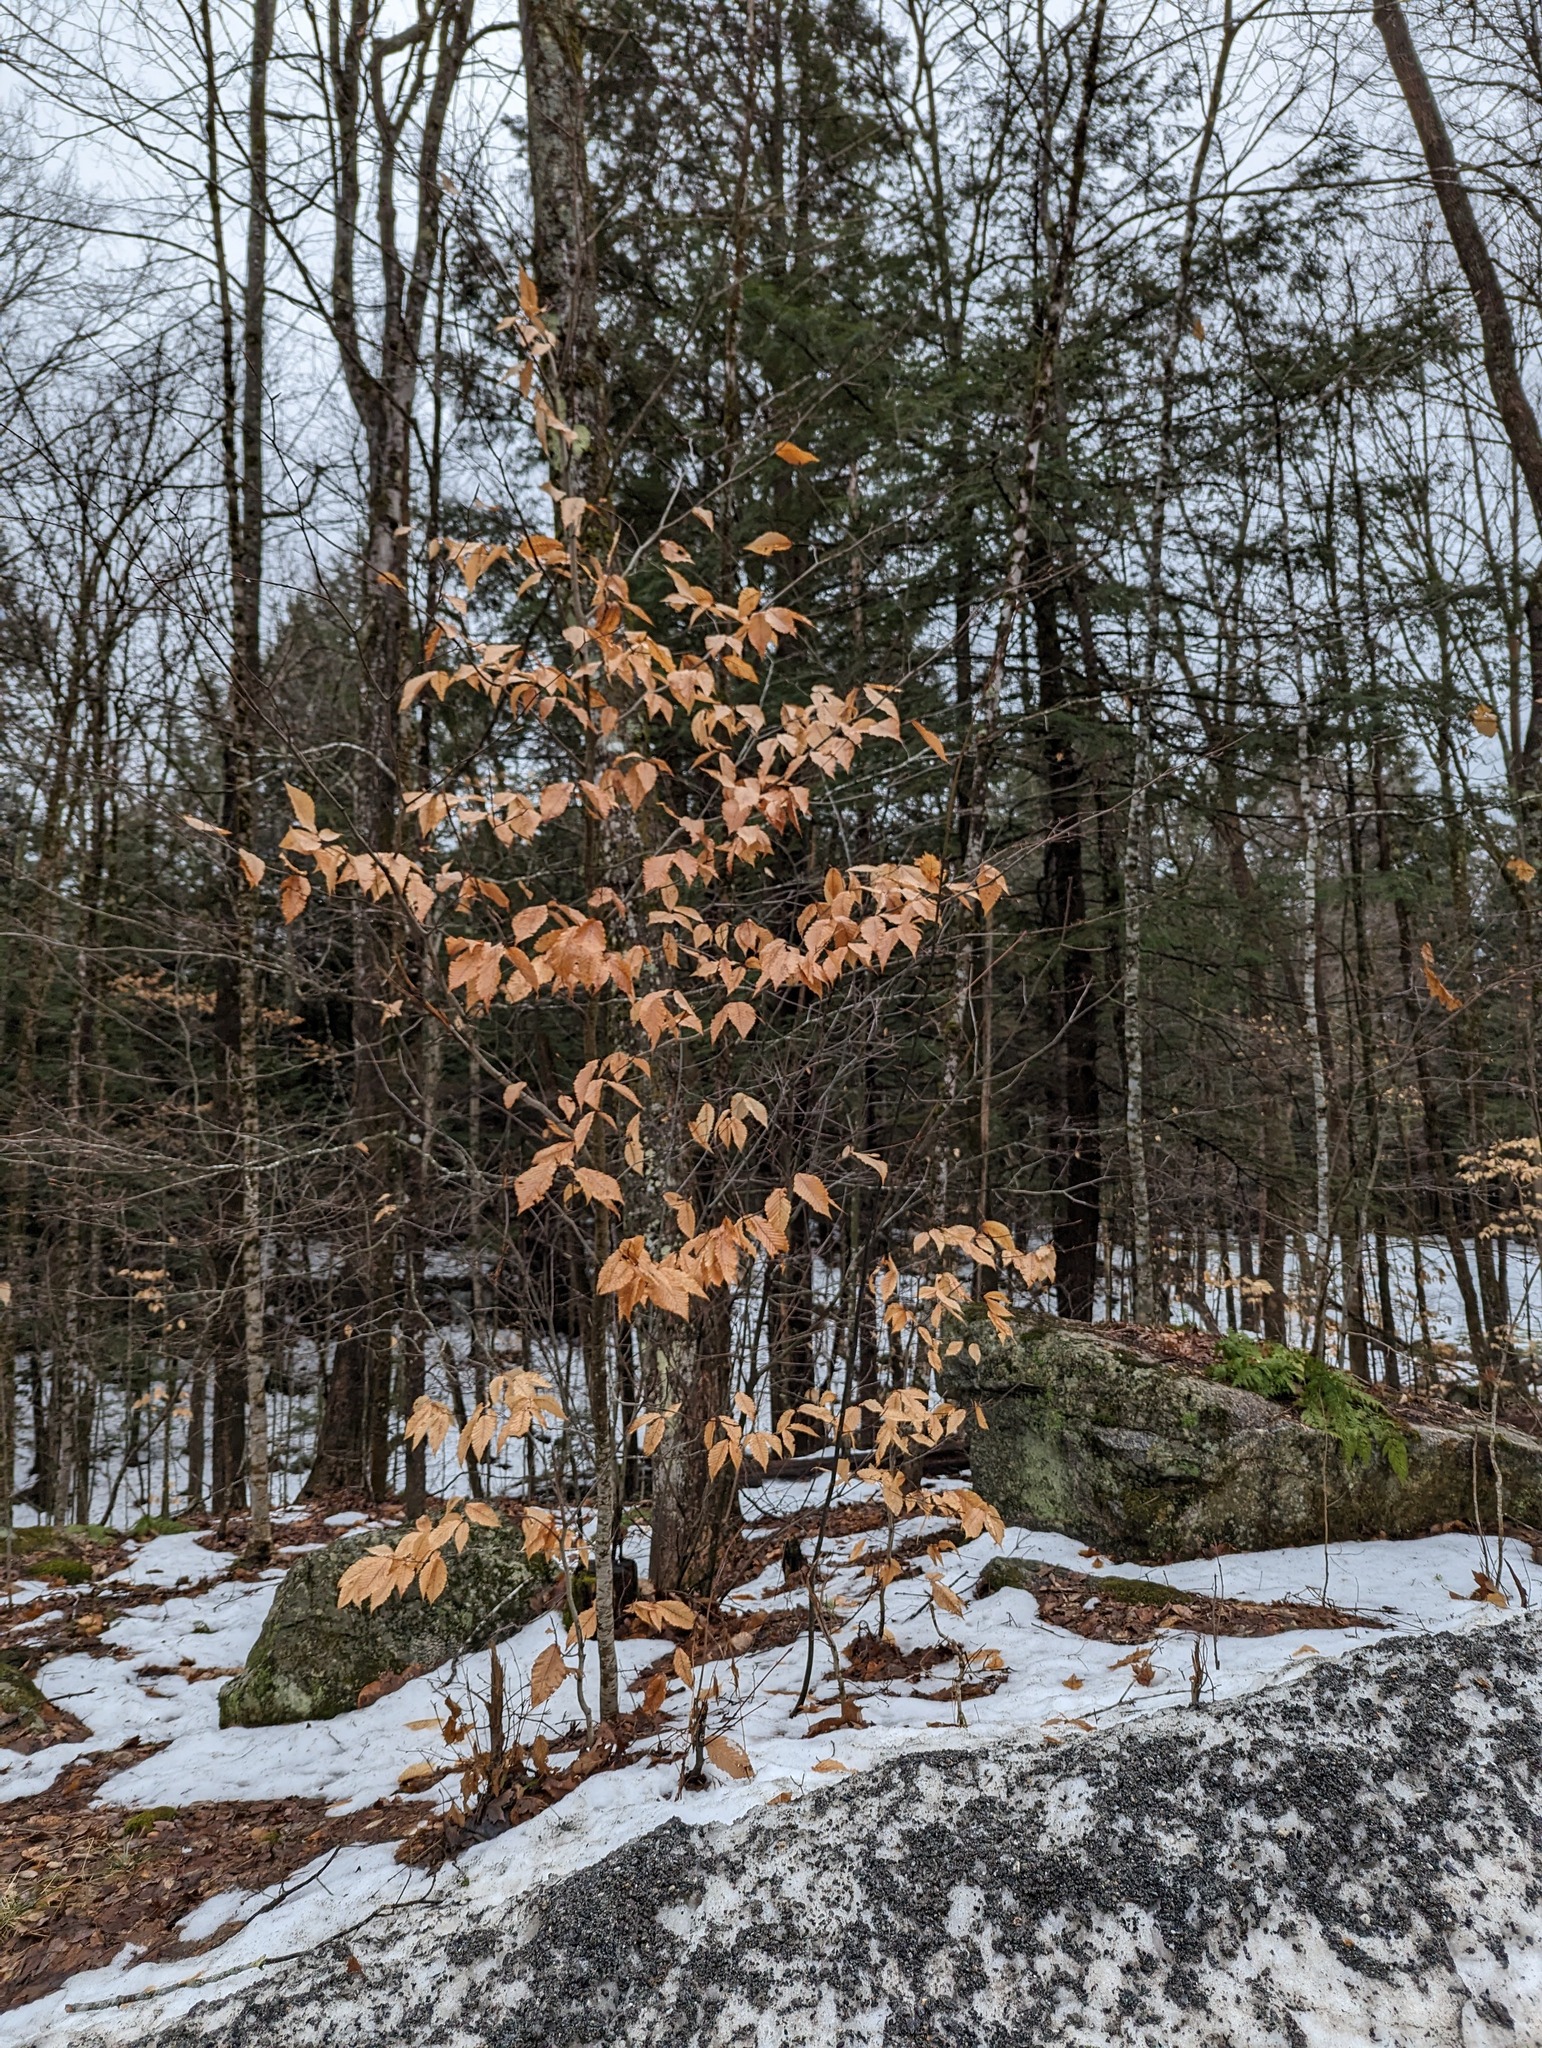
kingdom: Plantae
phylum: Tracheophyta
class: Magnoliopsida
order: Fagales
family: Fagaceae
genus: Fagus
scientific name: Fagus grandifolia
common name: American beech
